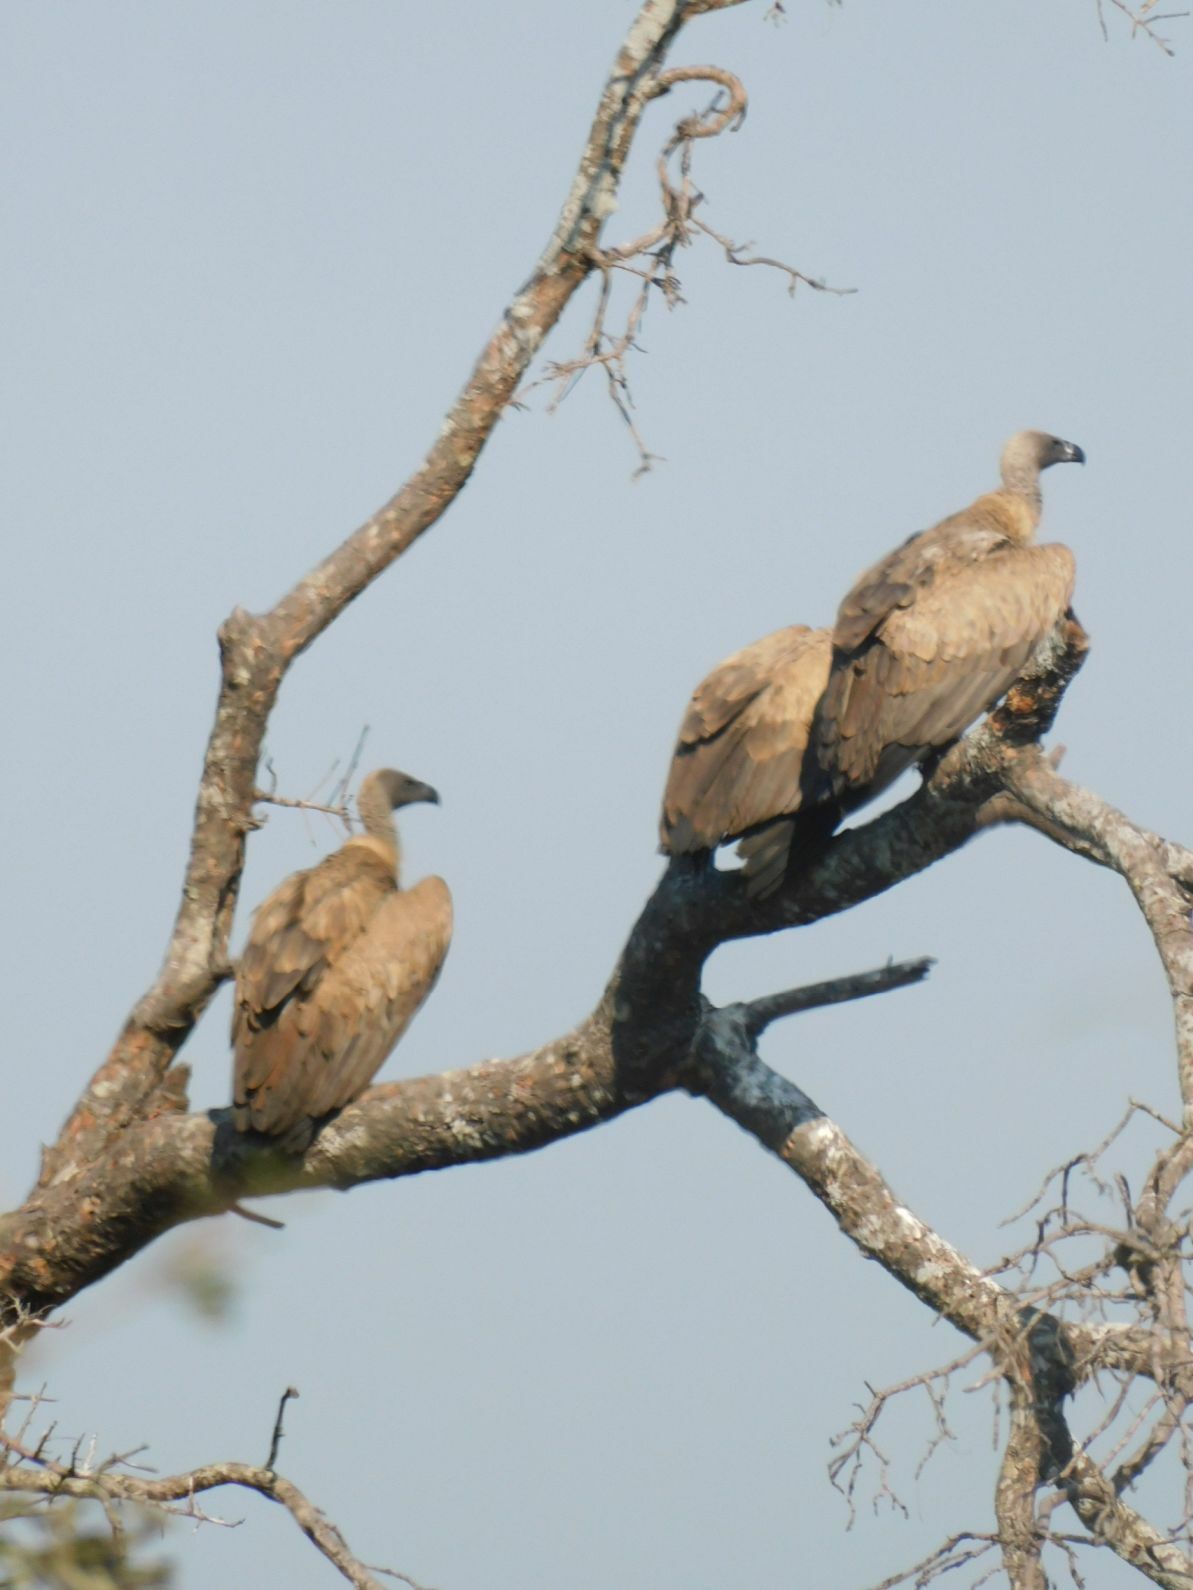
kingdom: Animalia
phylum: Chordata
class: Aves
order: Accipitriformes
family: Accipitridae
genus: Gyps
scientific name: Gyps africanus
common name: White-backed vulture
